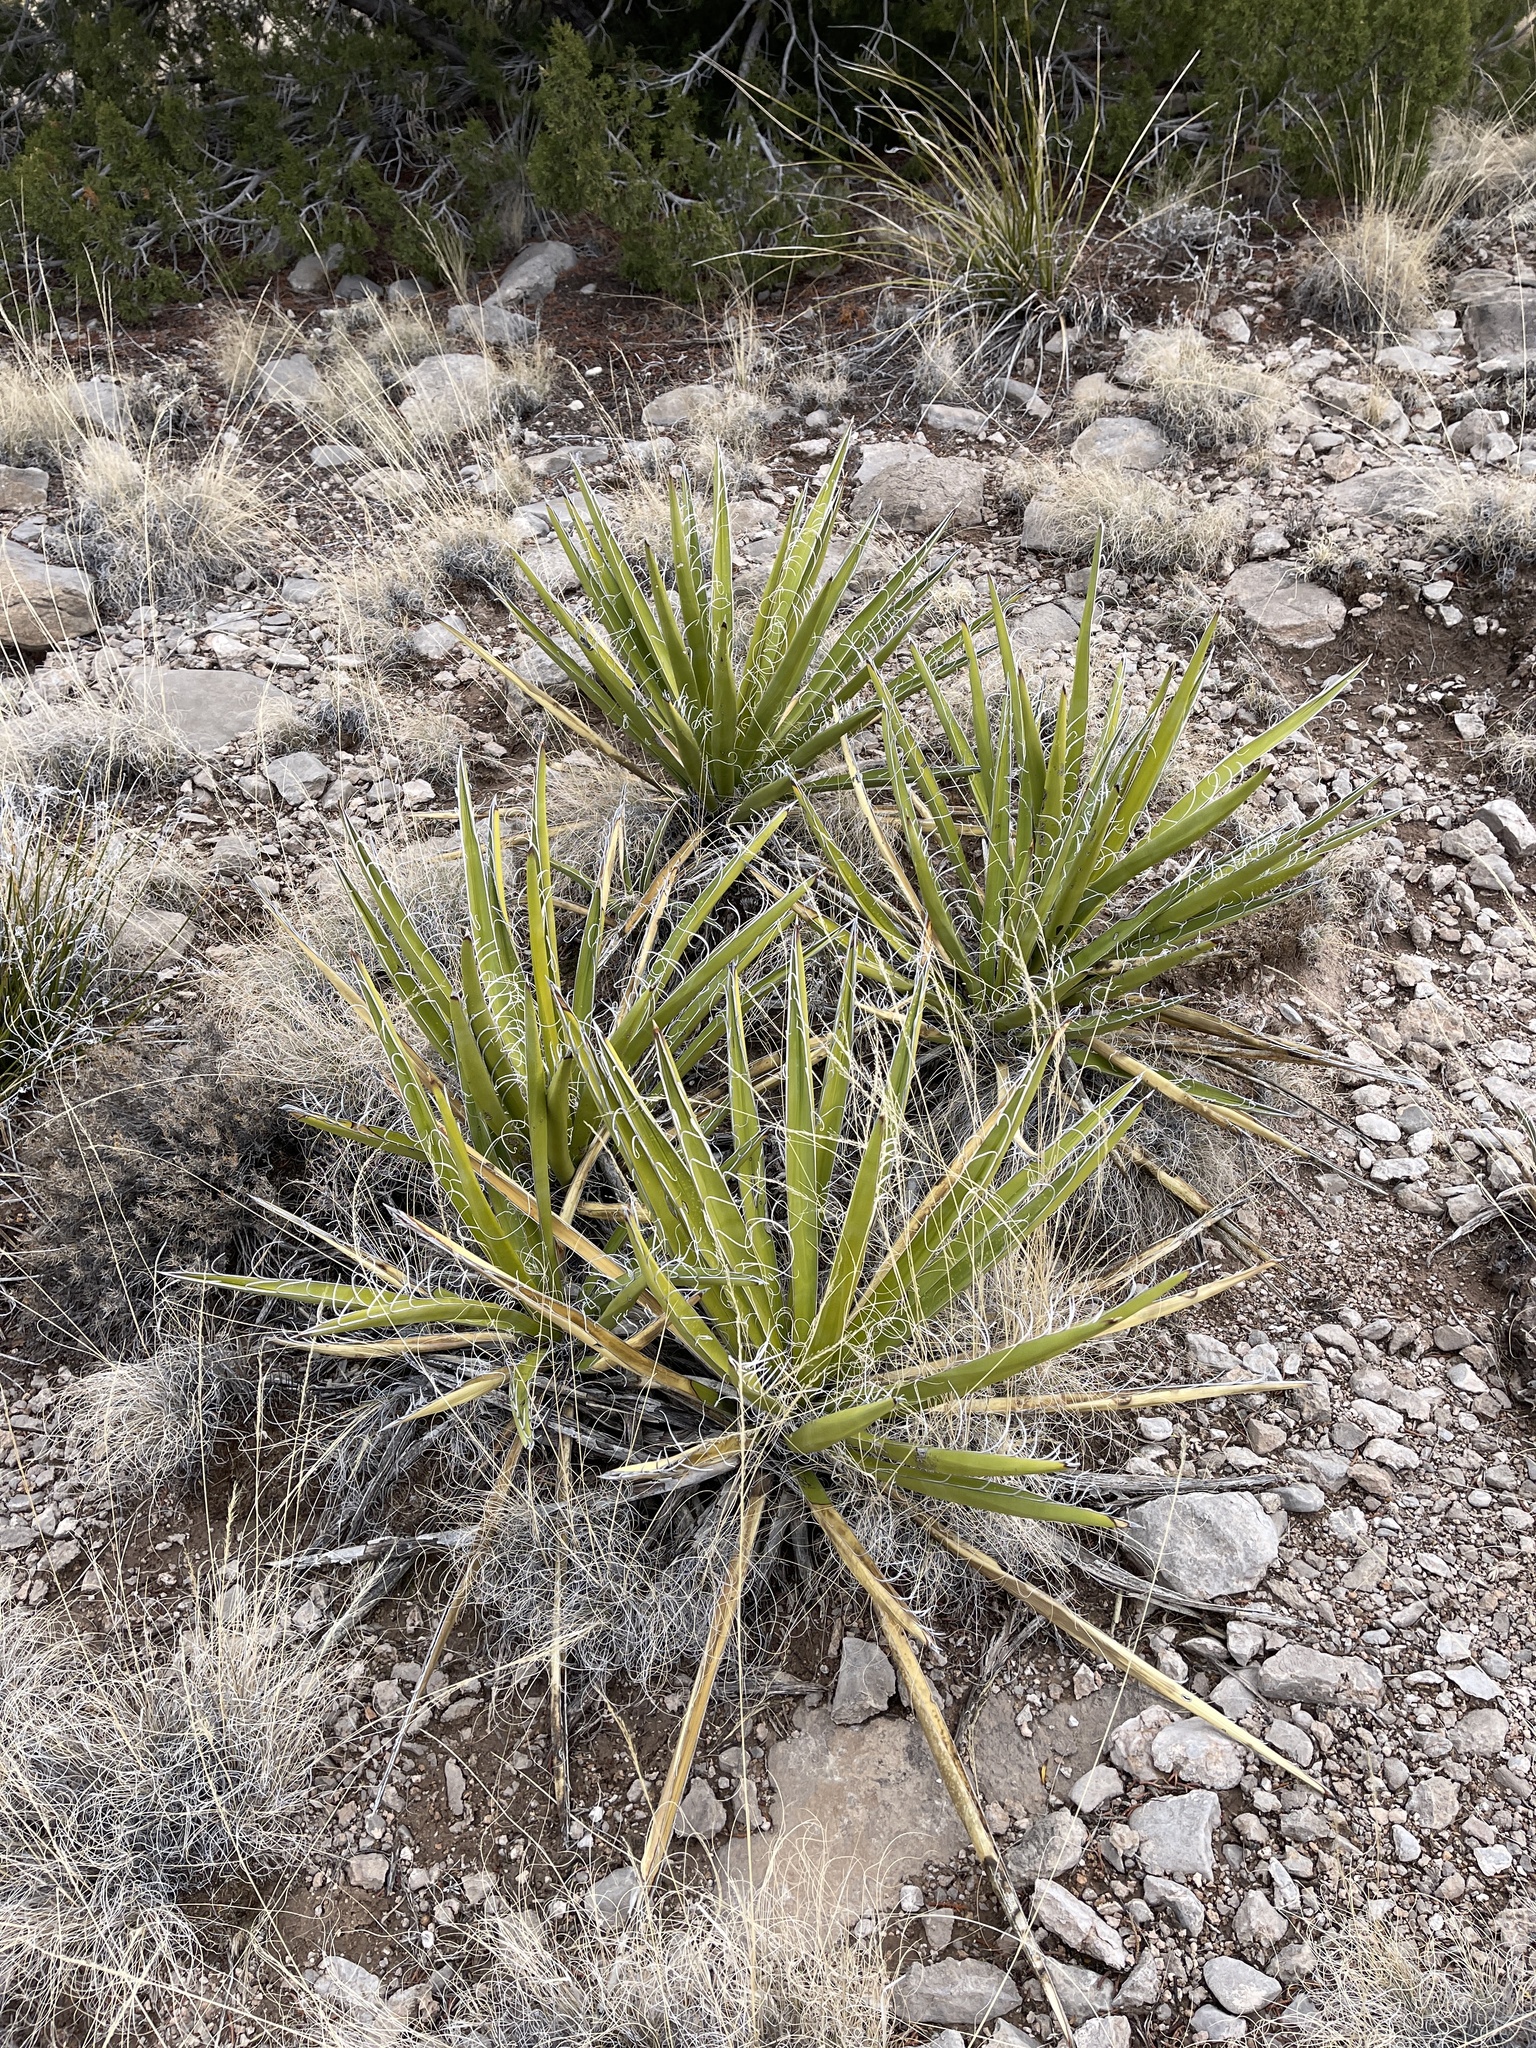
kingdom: Plantae
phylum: Tracheophyta
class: Liliopsida
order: Asparagales
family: Asparagaceae
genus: Yucca
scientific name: Yucca baccata
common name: Banana yucca
